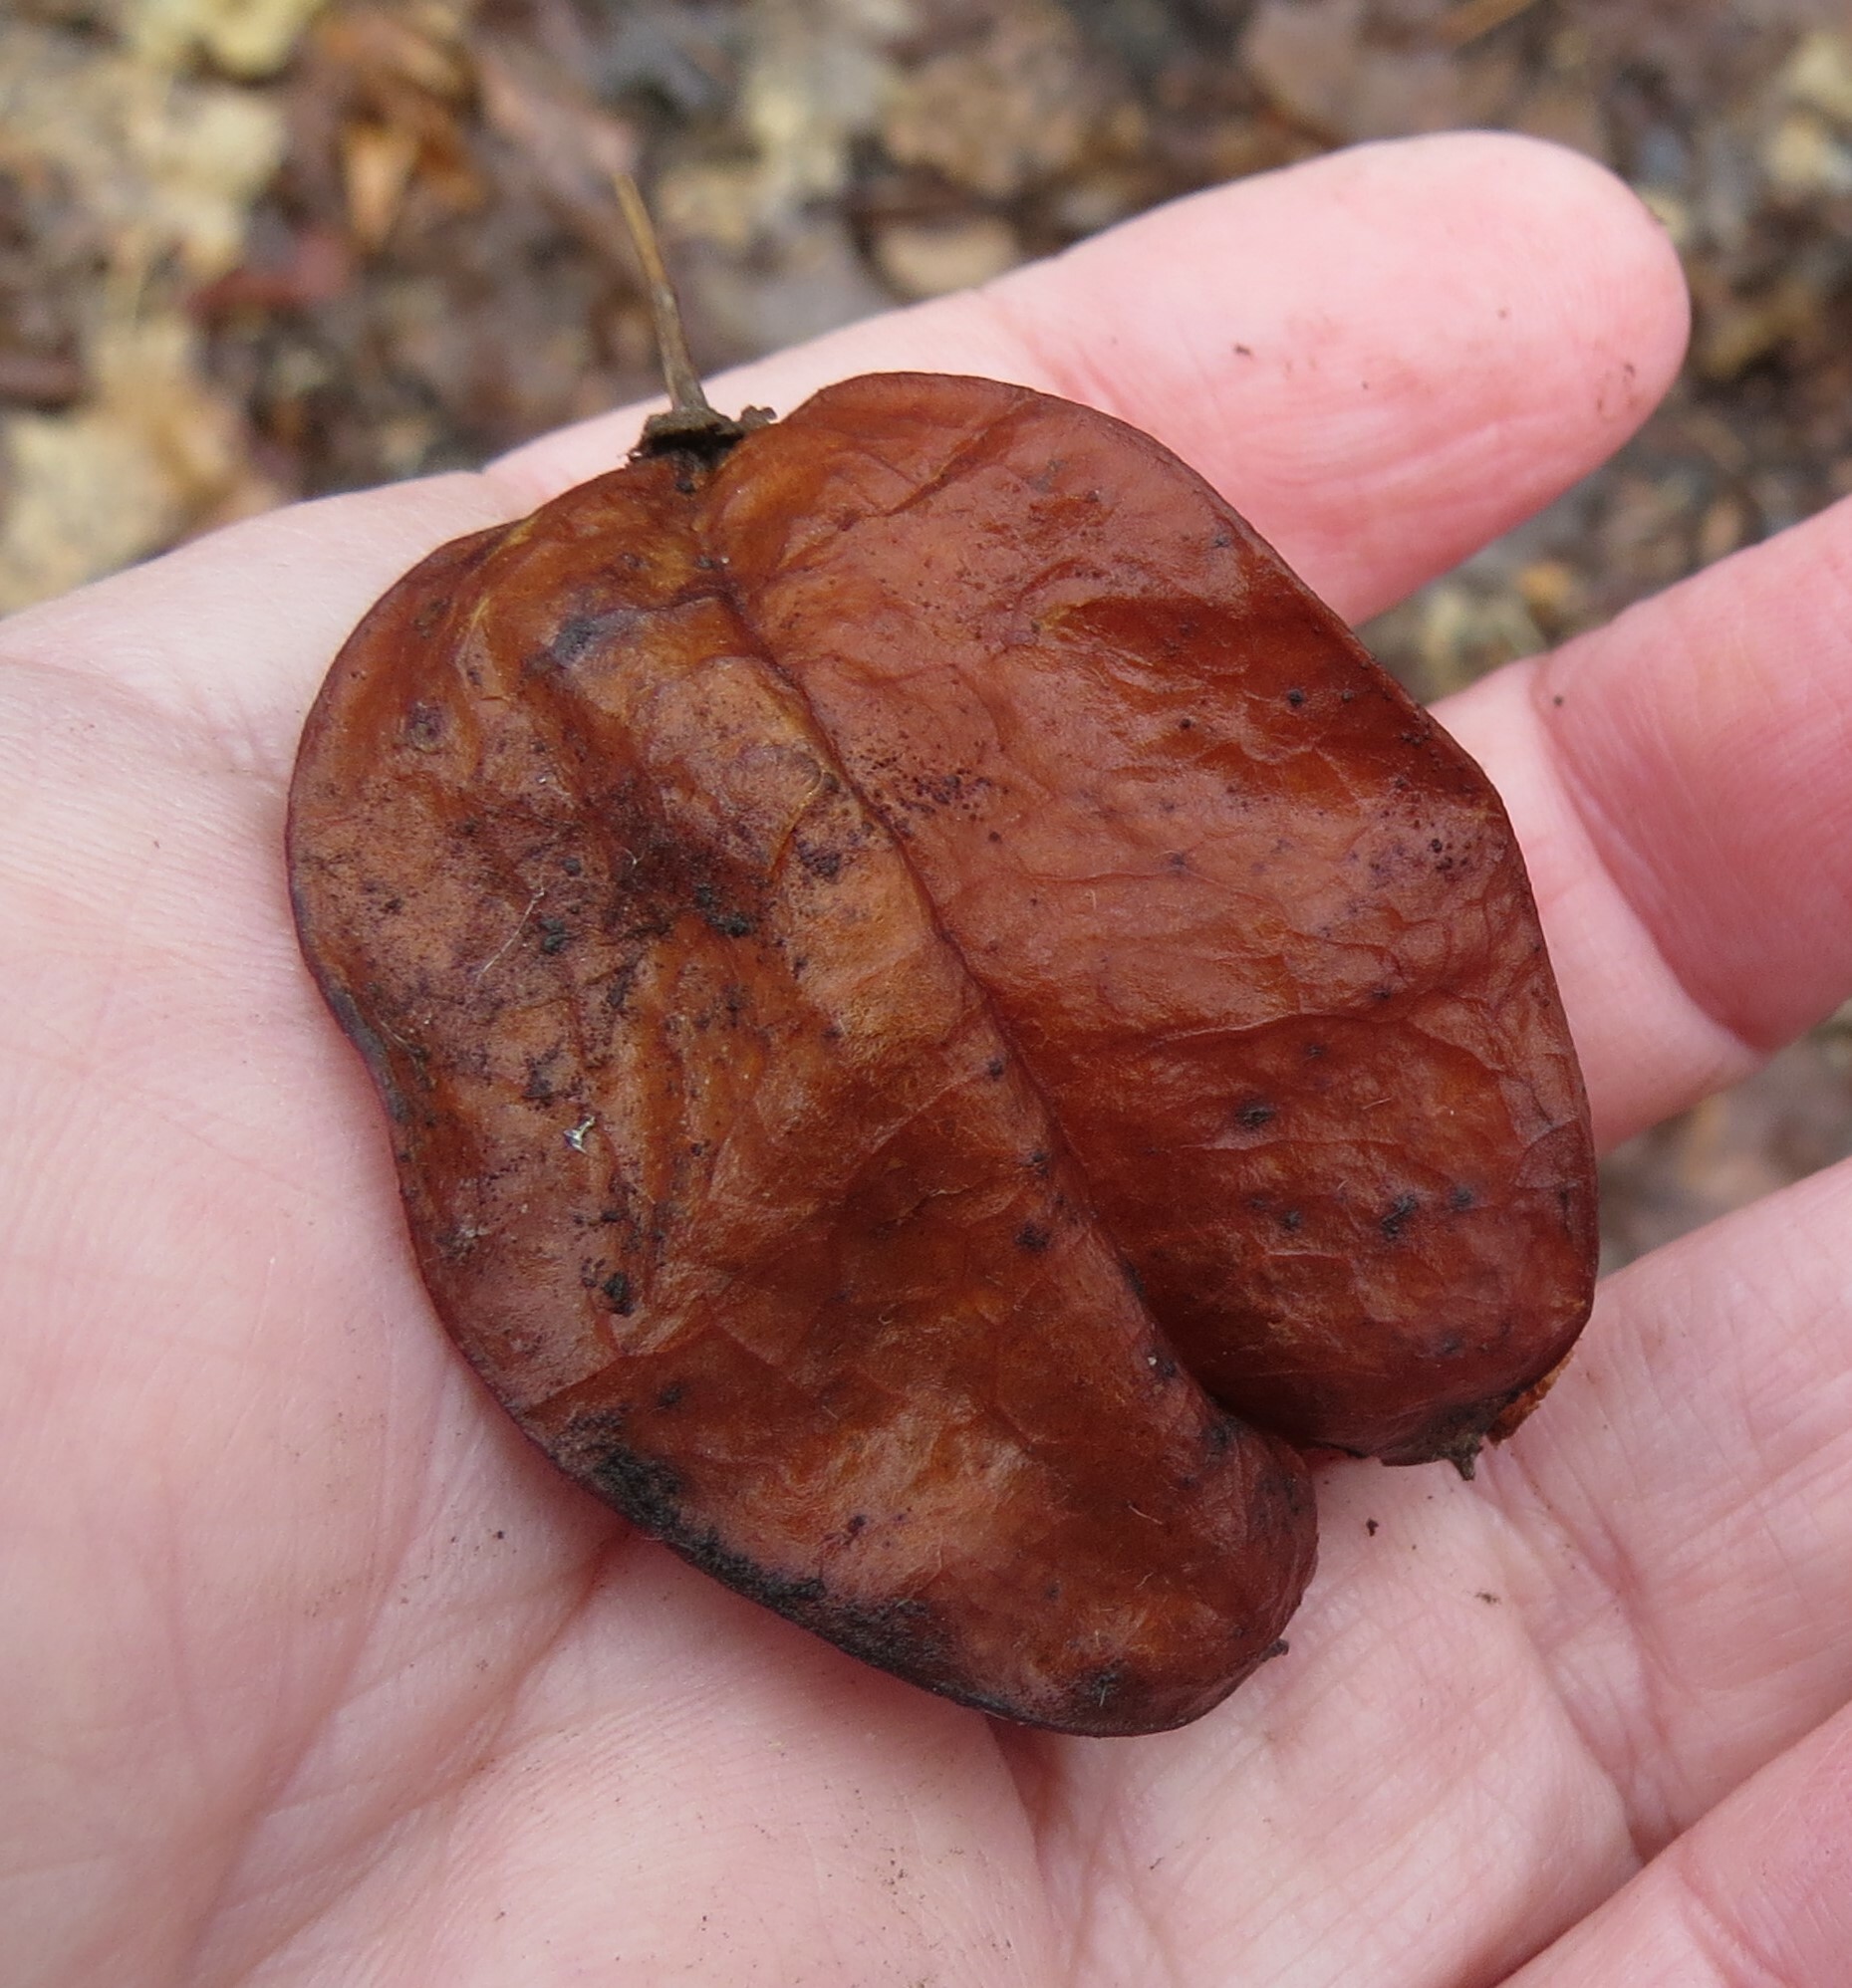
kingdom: Plantae
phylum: Tracheophyta
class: Magnoliopsida
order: Crossosomatales
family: Staphyleaceae
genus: Staphylea
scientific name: Staphylea trifolia
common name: American bladdernut
